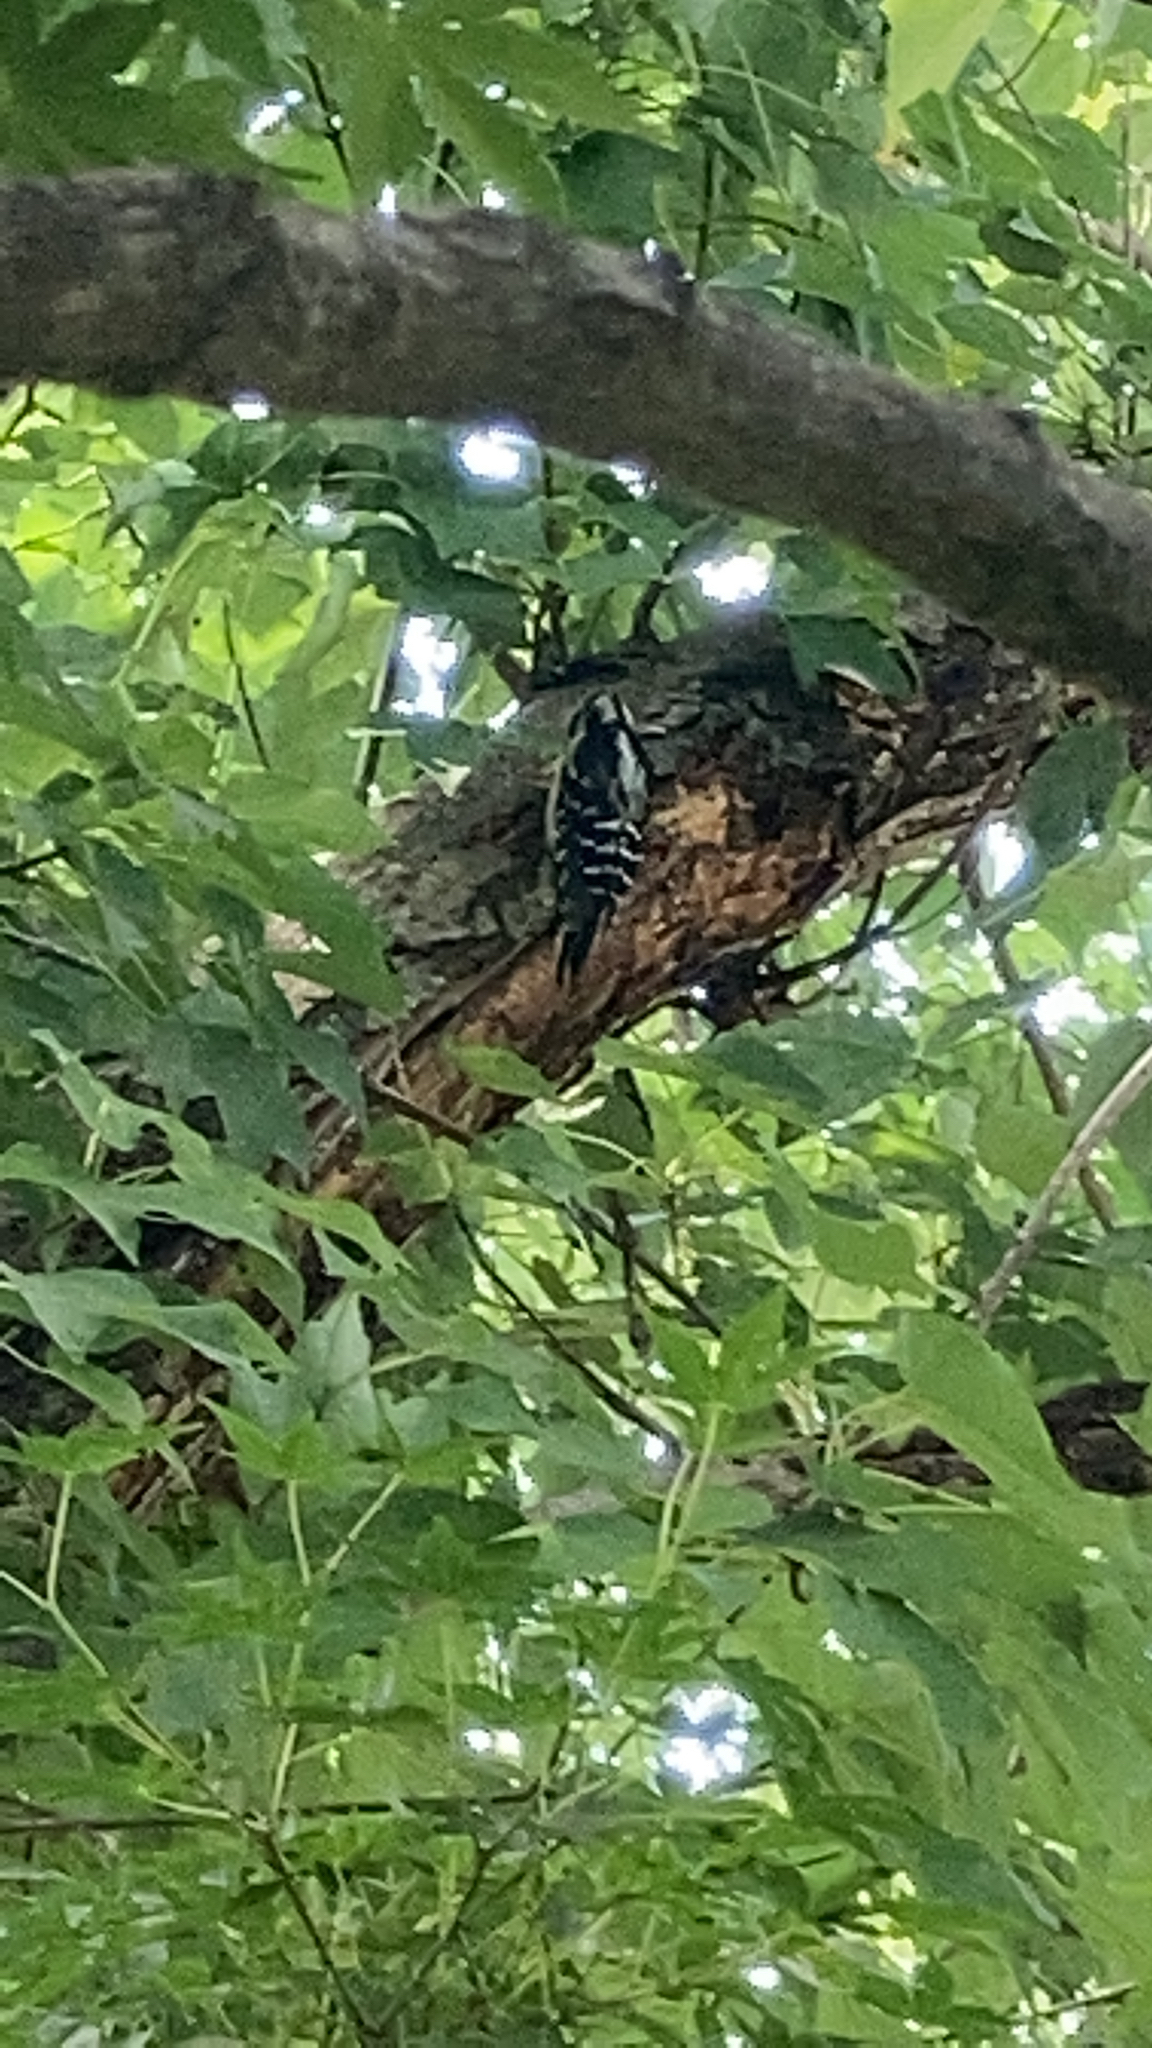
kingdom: Animalia
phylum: Chordata
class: Aves
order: Piciformes
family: Picidae
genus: Dryobates
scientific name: Dryobates pubescens
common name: Downy woodpecker
